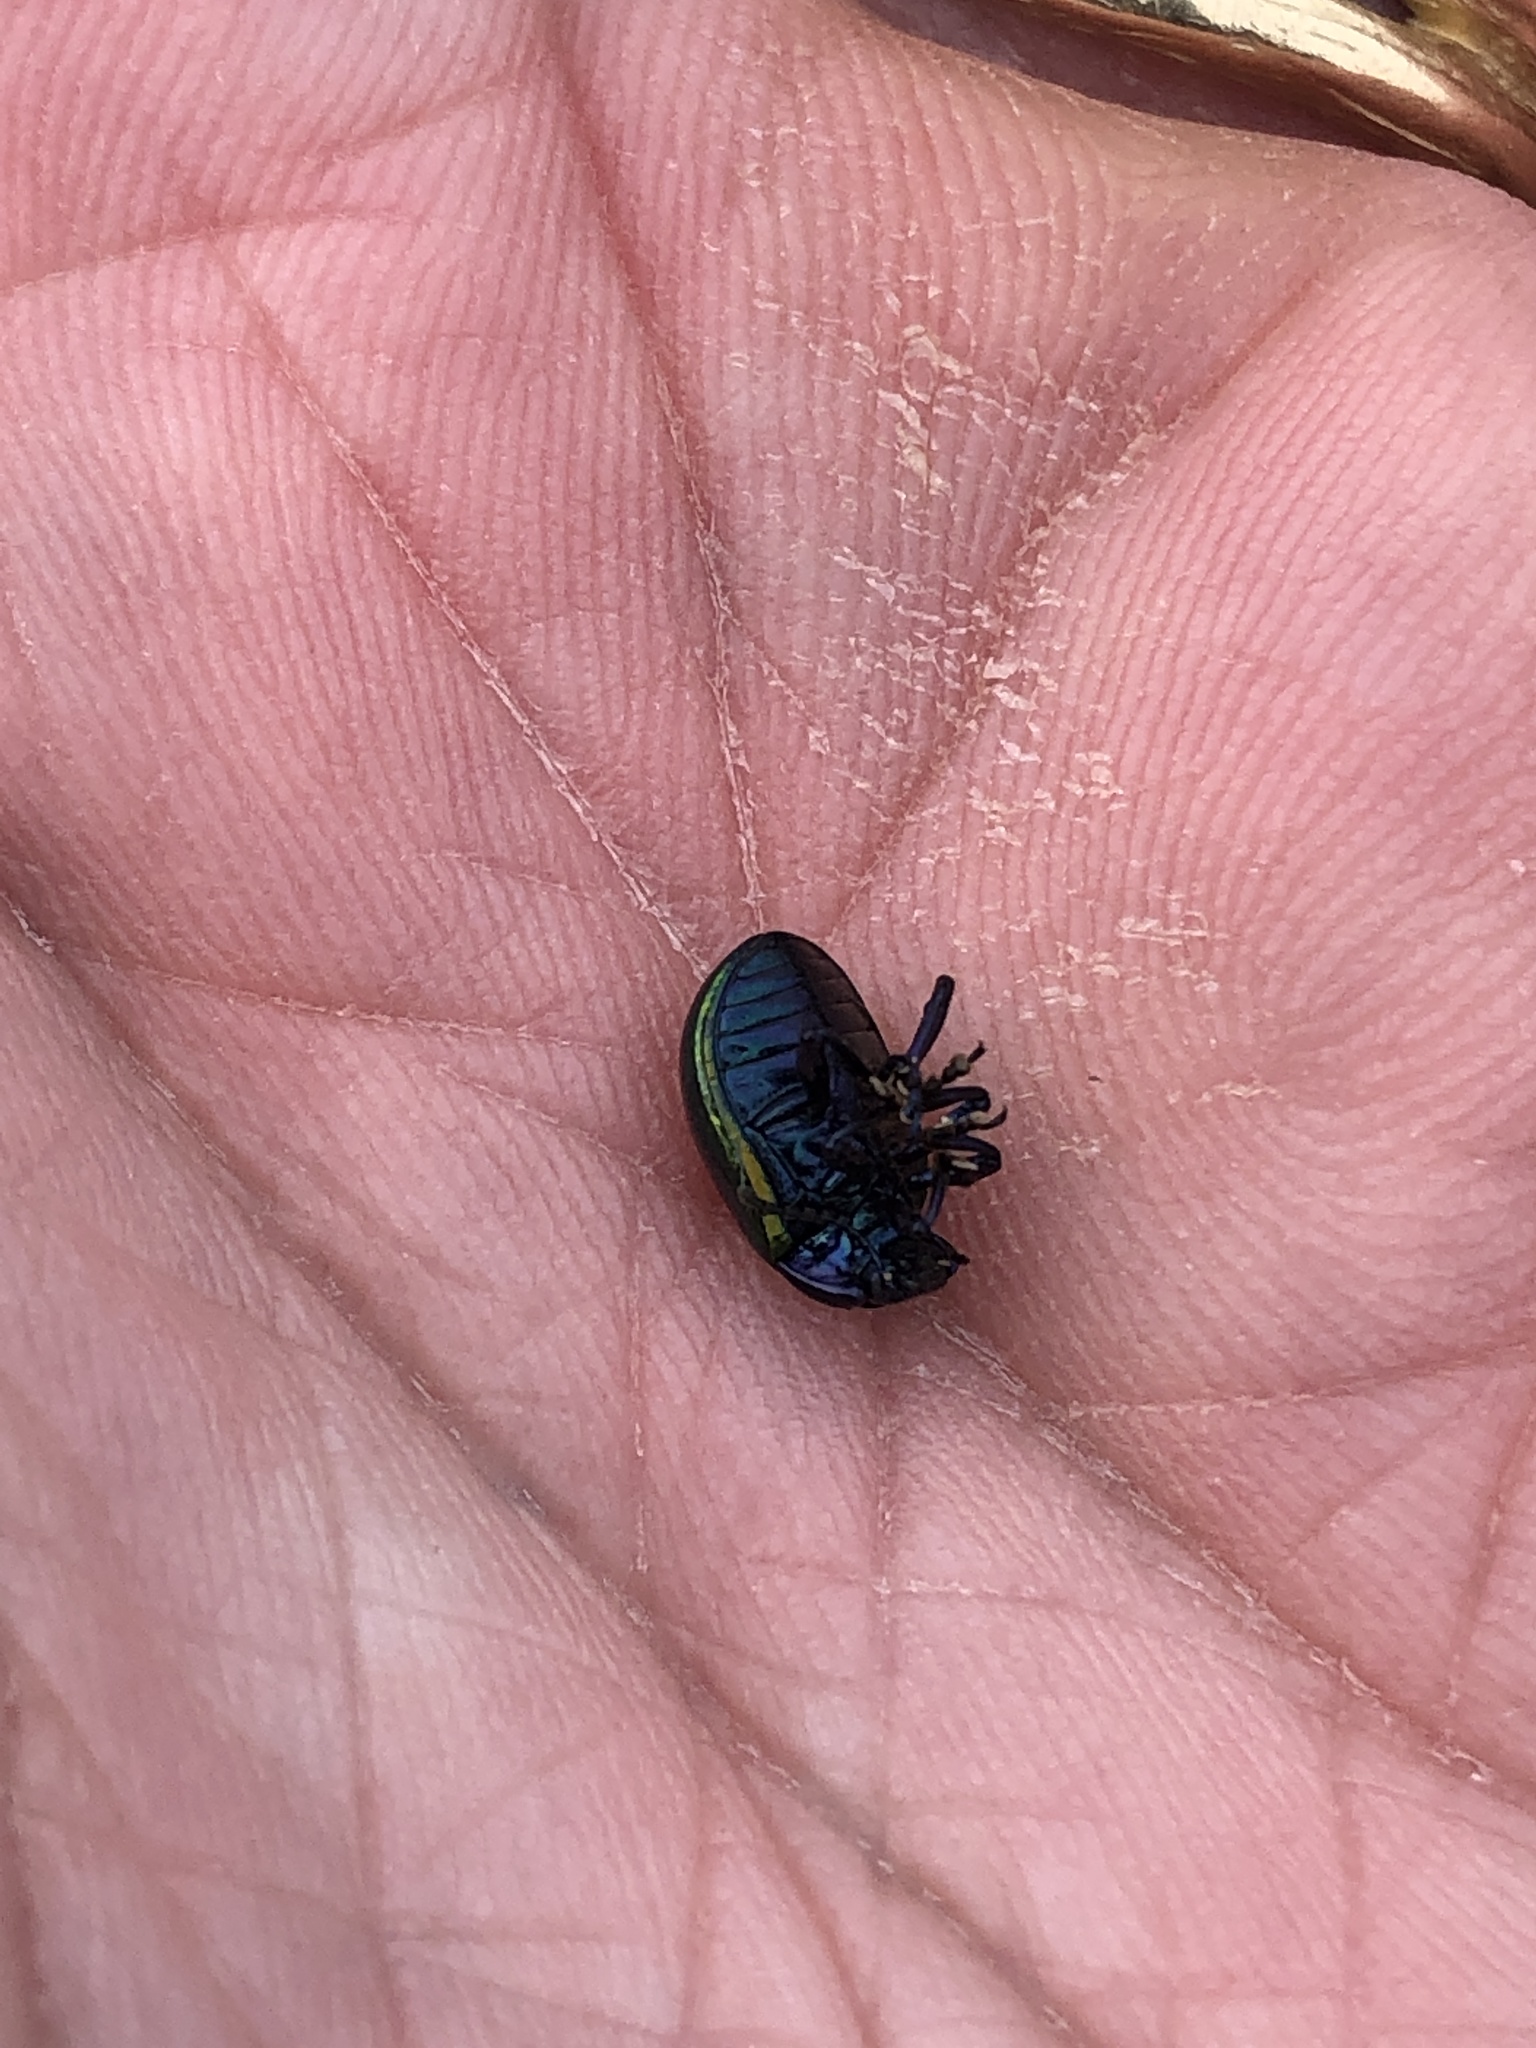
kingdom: Animalia
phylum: Arthropoda
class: Insecta
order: Coleoptera
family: Chrysomelidae
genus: Chrysolina
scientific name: Chrysolina auripennis
